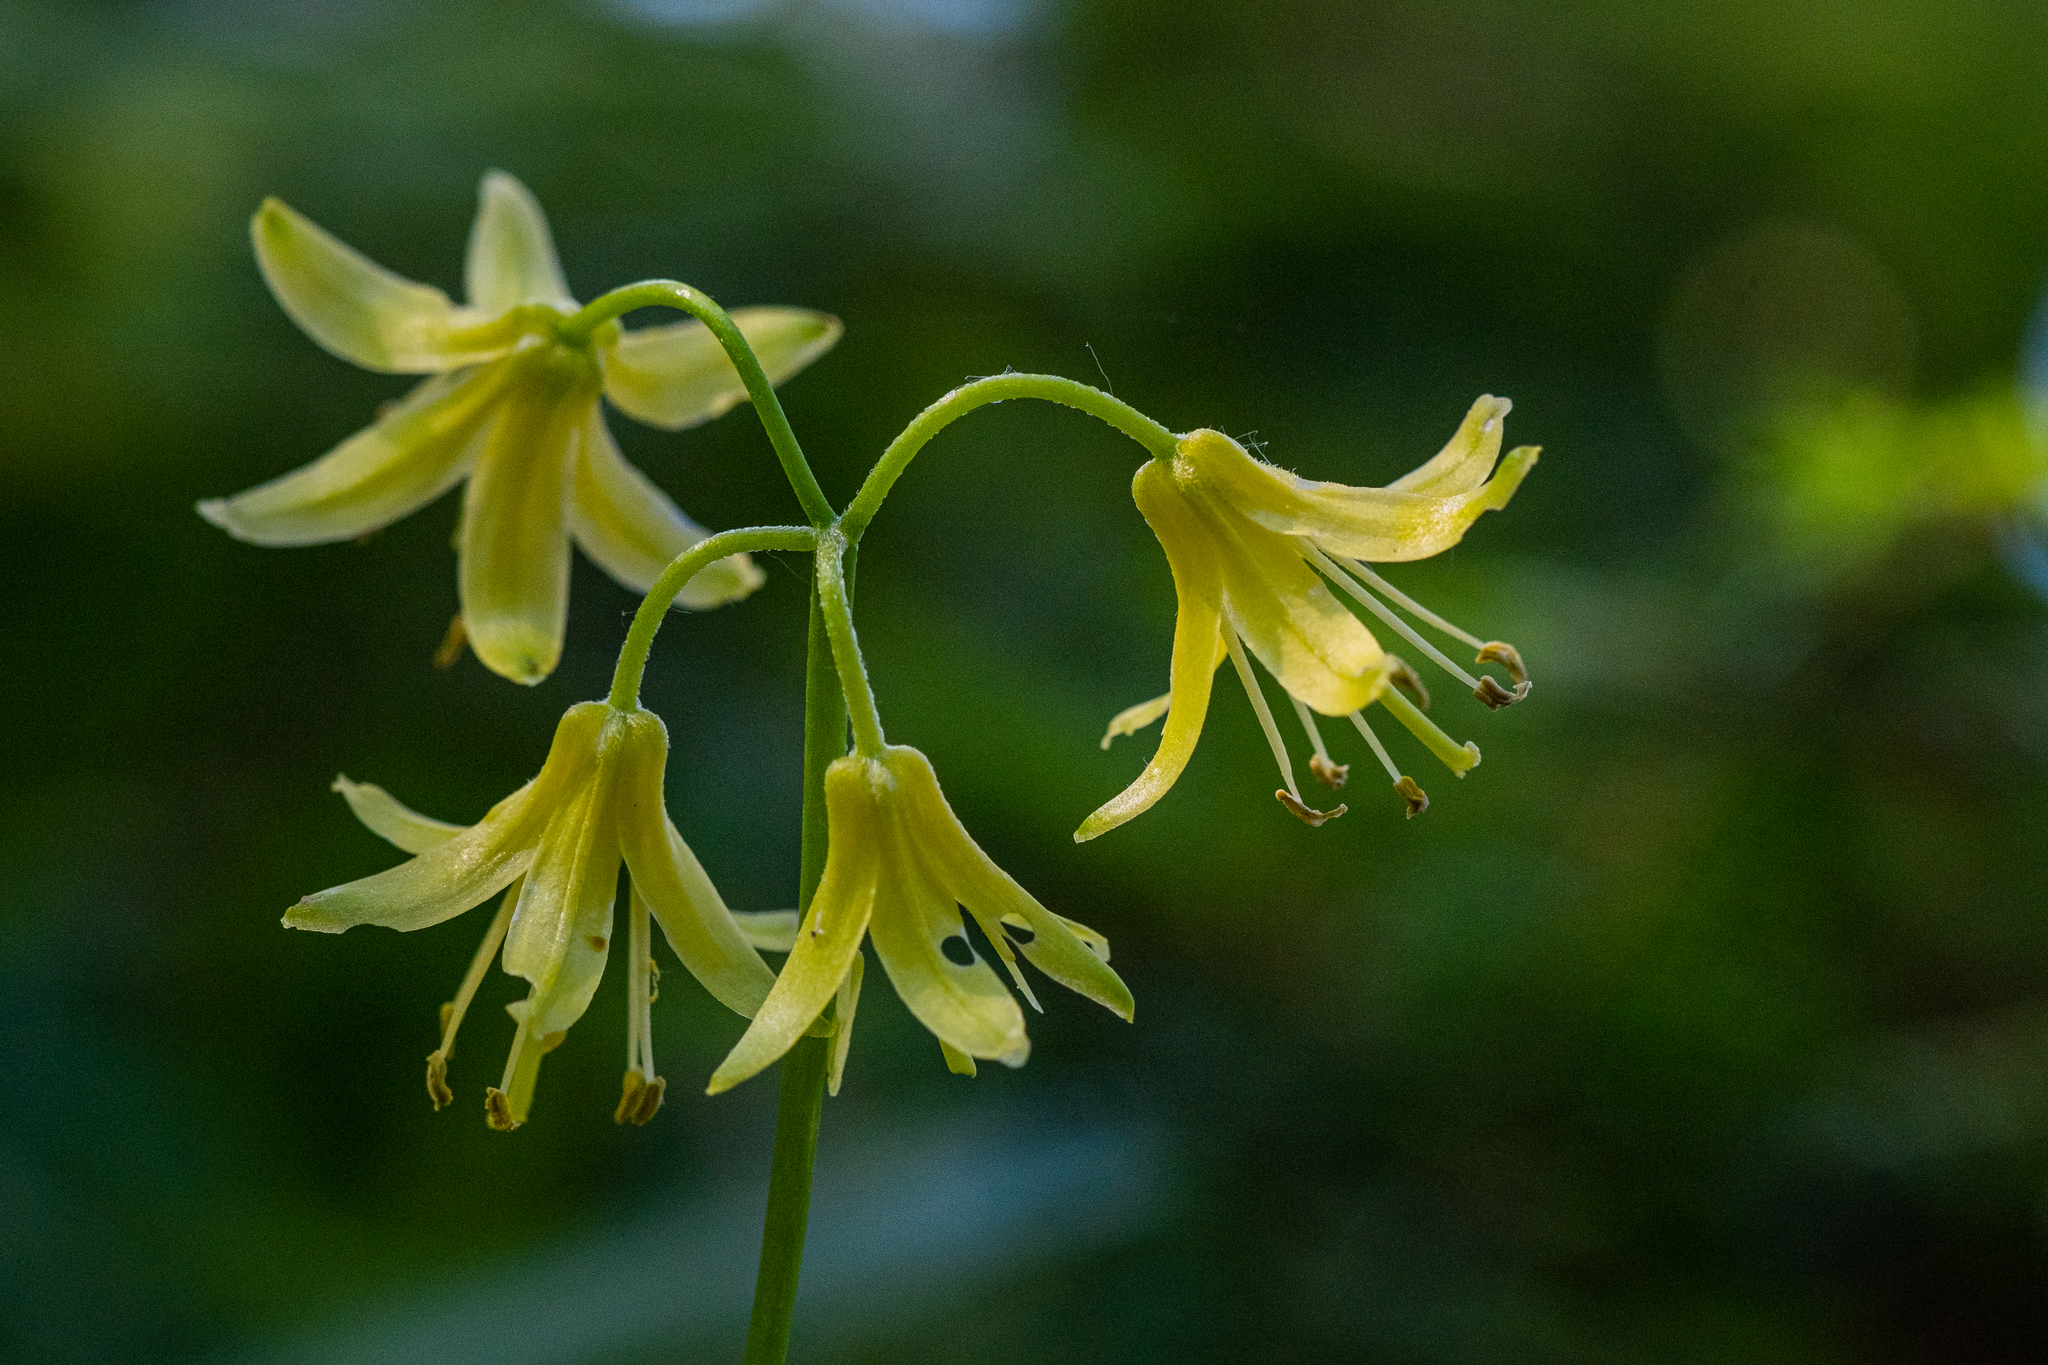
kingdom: Plantae
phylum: Tracheophyta
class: Liliopsida
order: Liliales
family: Liliaceae
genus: Clintonia
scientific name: Clintonia borealis
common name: Yellow clintonia
